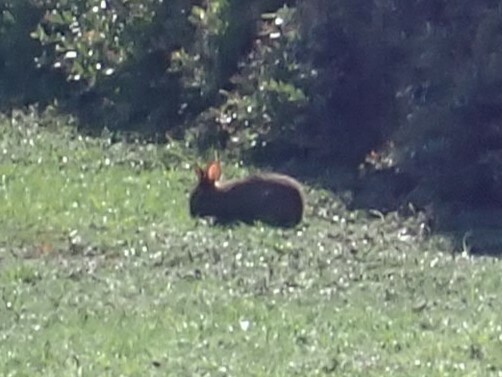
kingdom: Animalia
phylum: Chordata
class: Mammalia
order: Lagomorpha
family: Leporidae
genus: Sylvilagus
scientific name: Sylvilagus palustris
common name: Marsh rabbit
